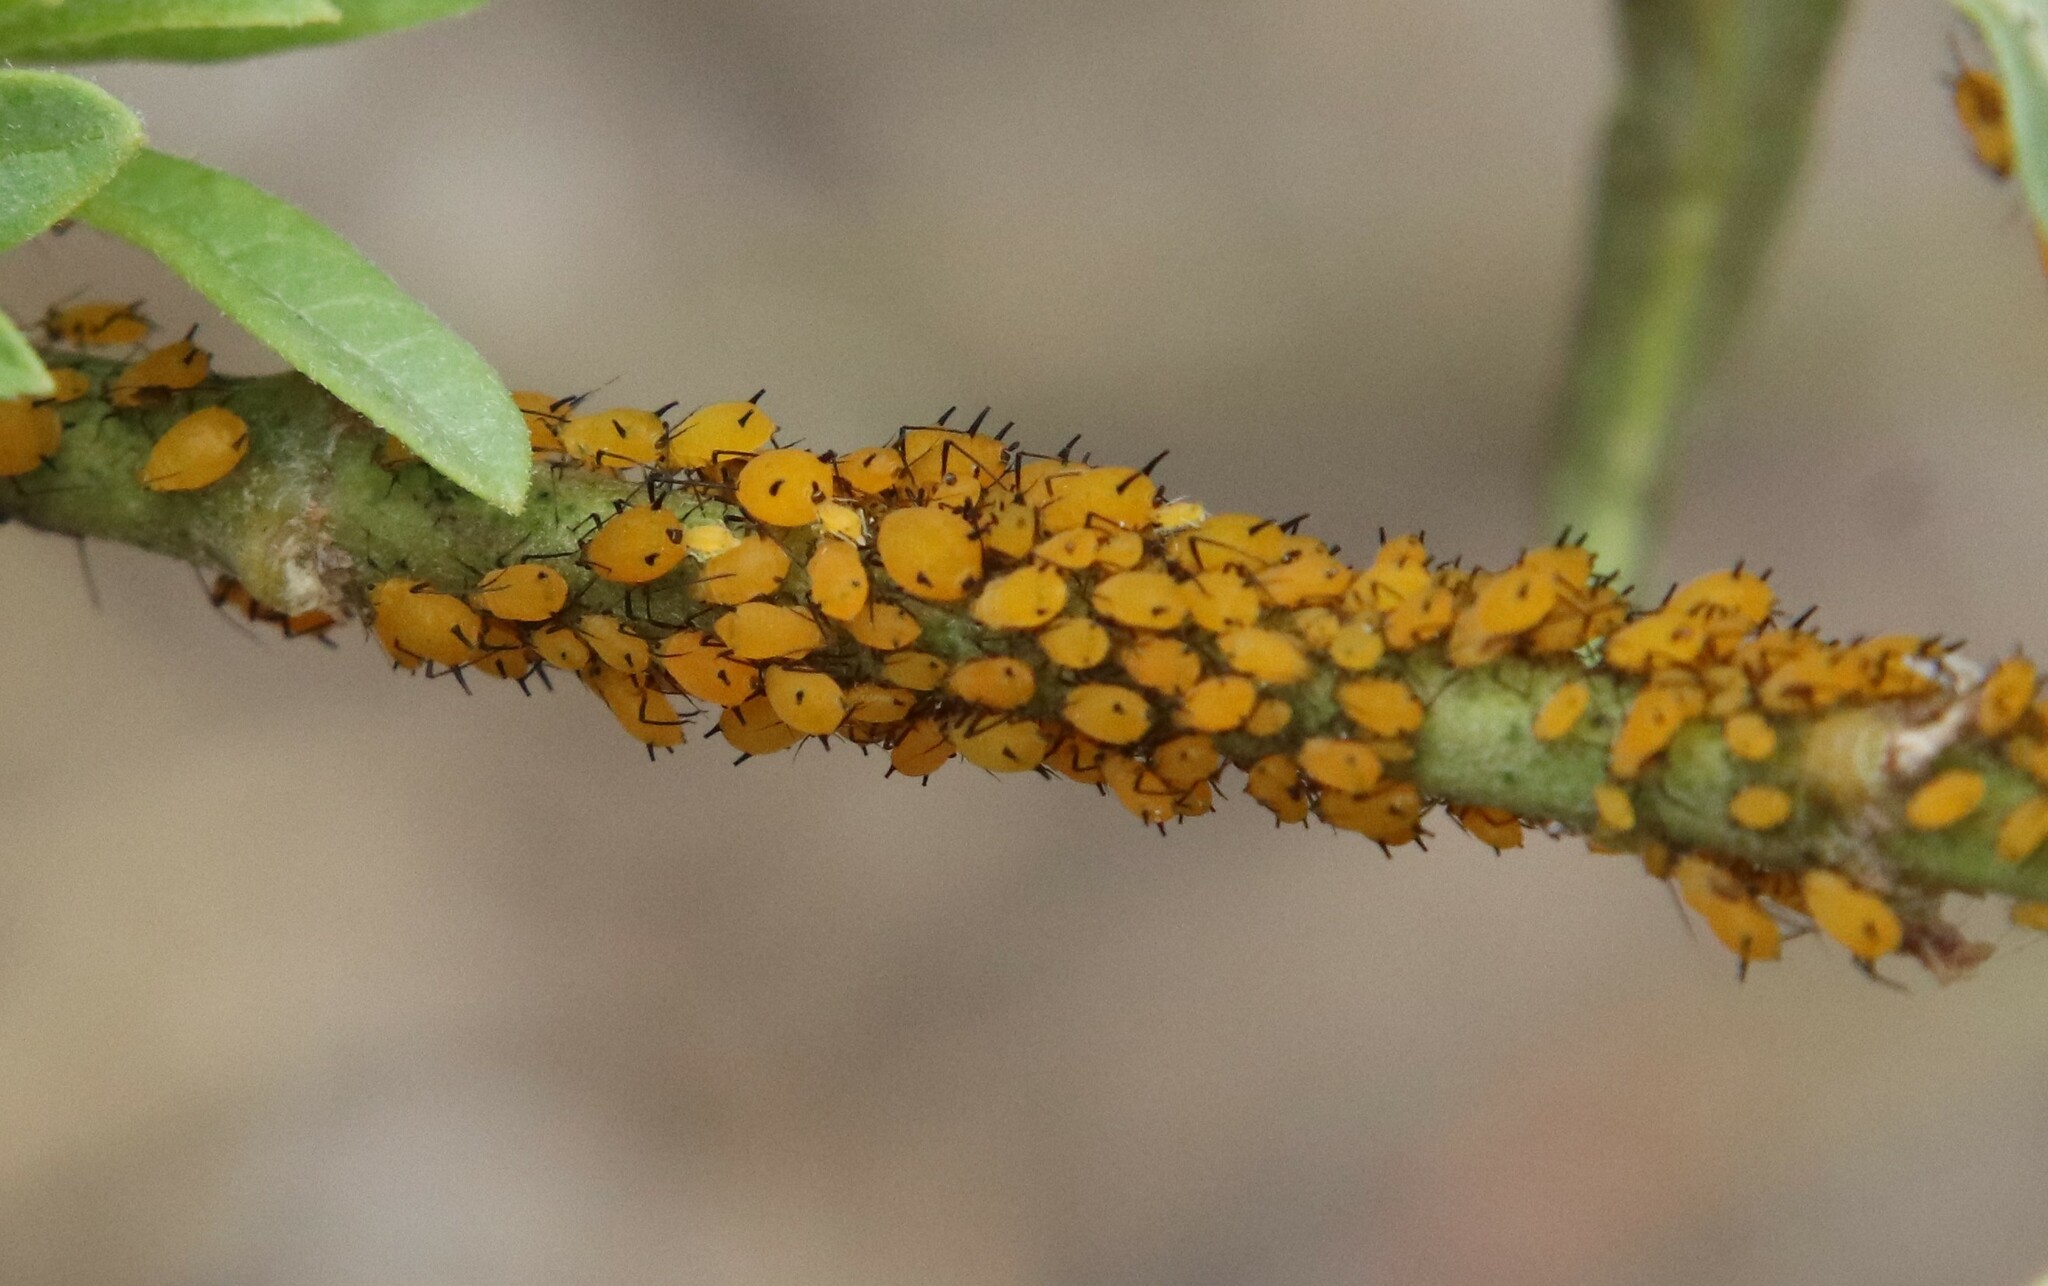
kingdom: Animalia
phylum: Arthropoda
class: Insecta
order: Hemiptera
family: Aphididae
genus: Aphis
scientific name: Aphis nerii
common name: Oleander aphid
